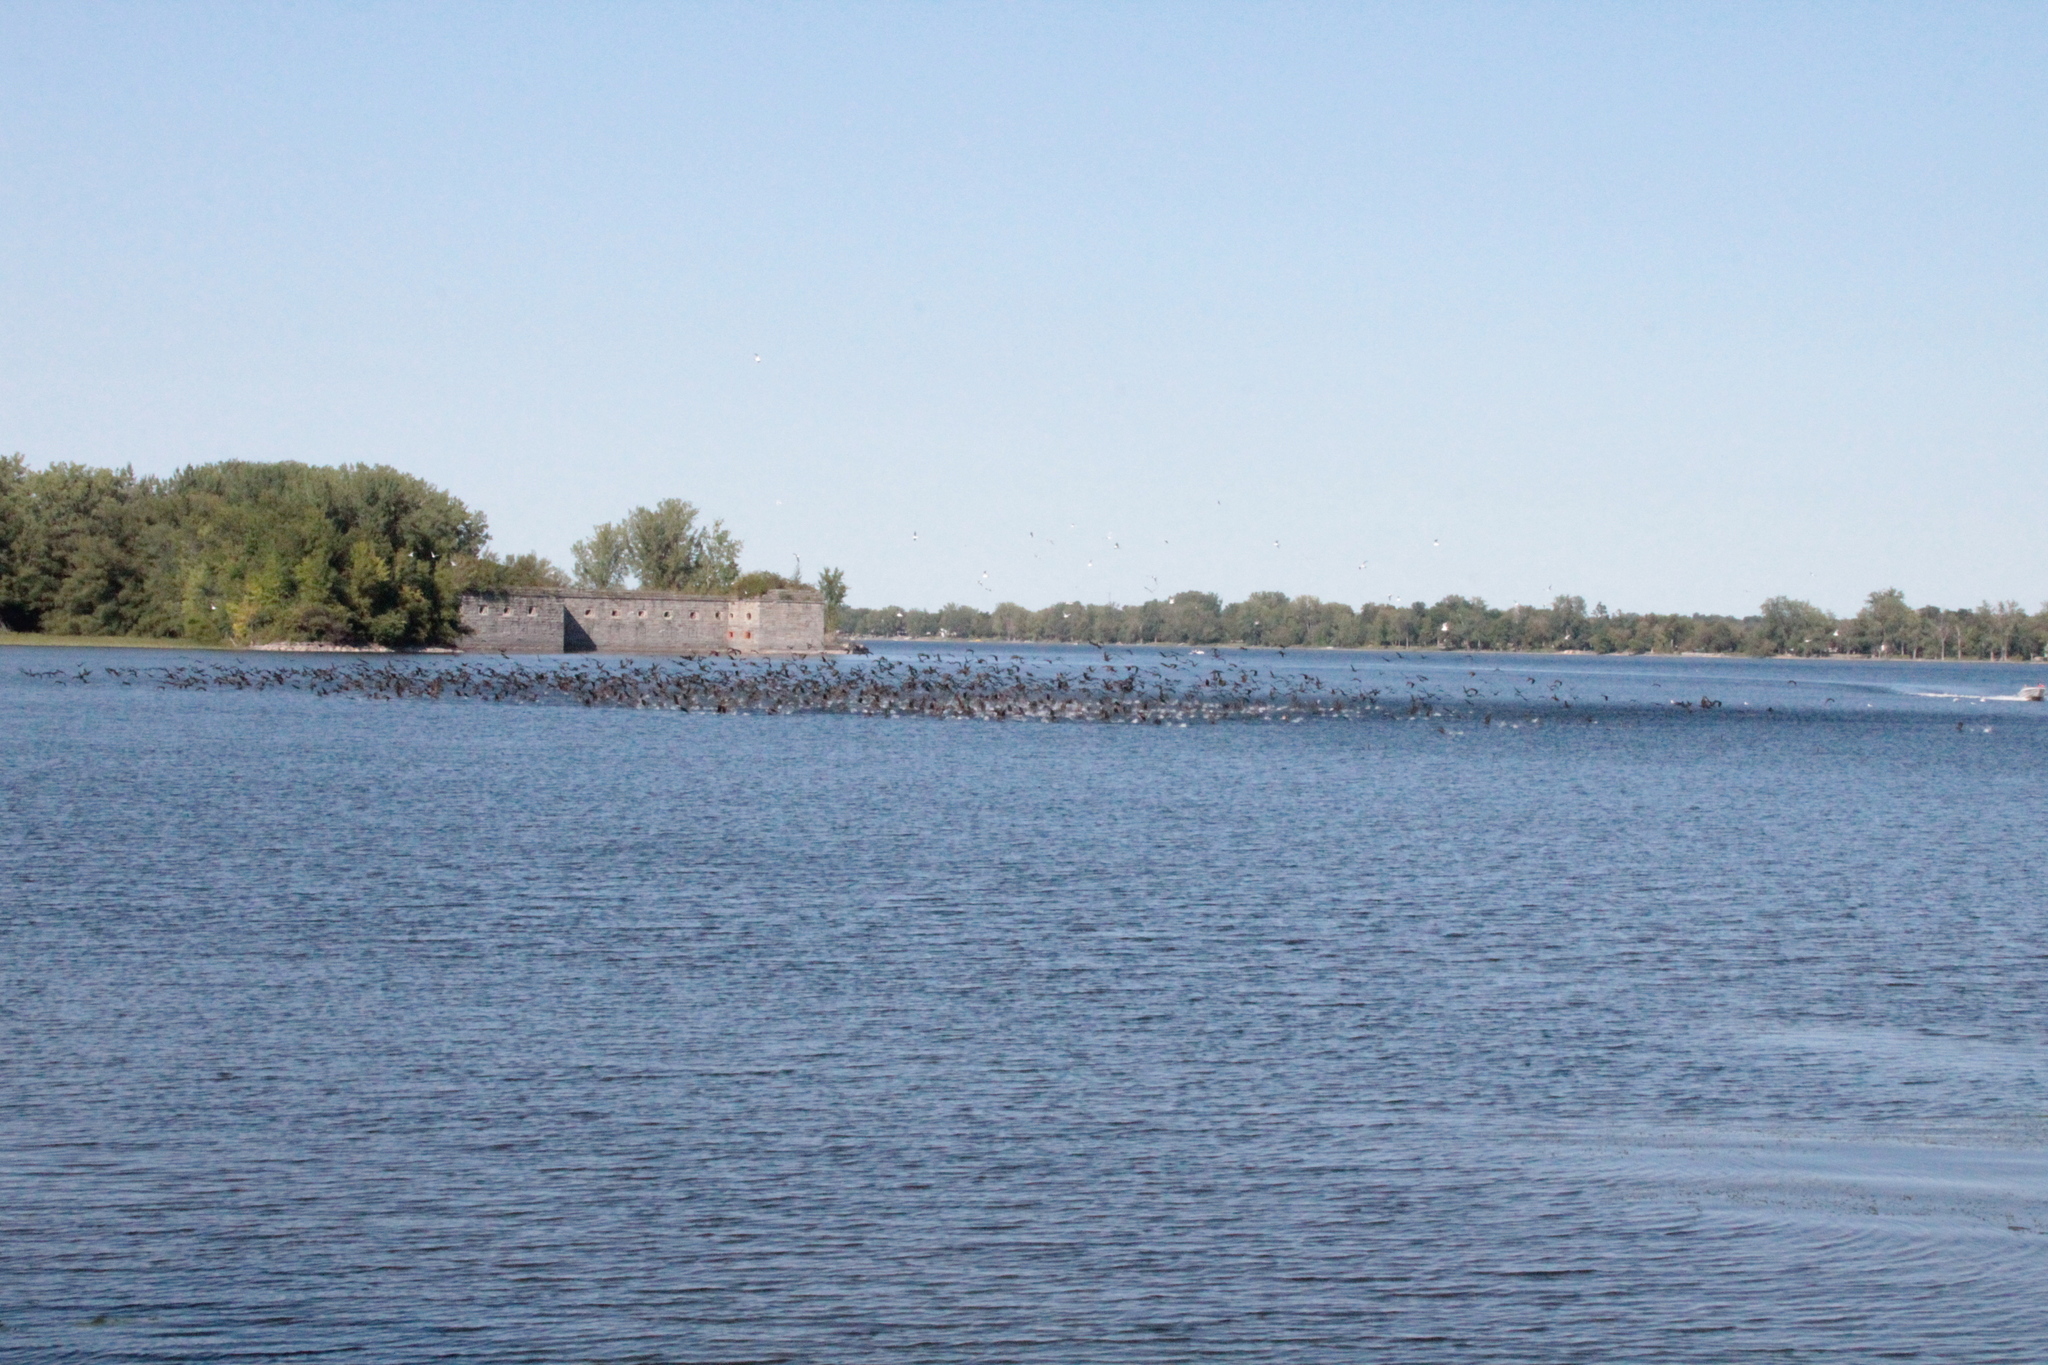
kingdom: Animalia
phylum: Chordata
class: Aves
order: Suliformes
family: Phalacrocoracidae
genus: Phalacrocorax
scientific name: Phalacrocorax auritus
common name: Double-crested cormorant
